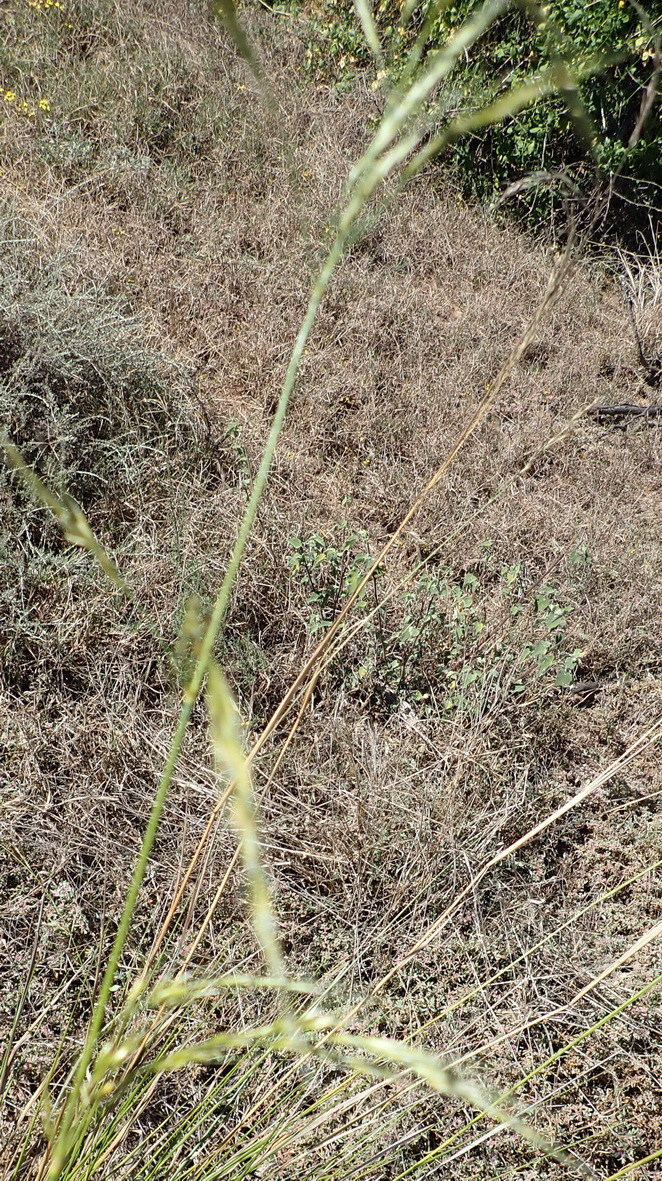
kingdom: Plantae
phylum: Tracheophyta
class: Liliopsida
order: Poales
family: Poaceae
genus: Stipa
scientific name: Stipa dregeana
